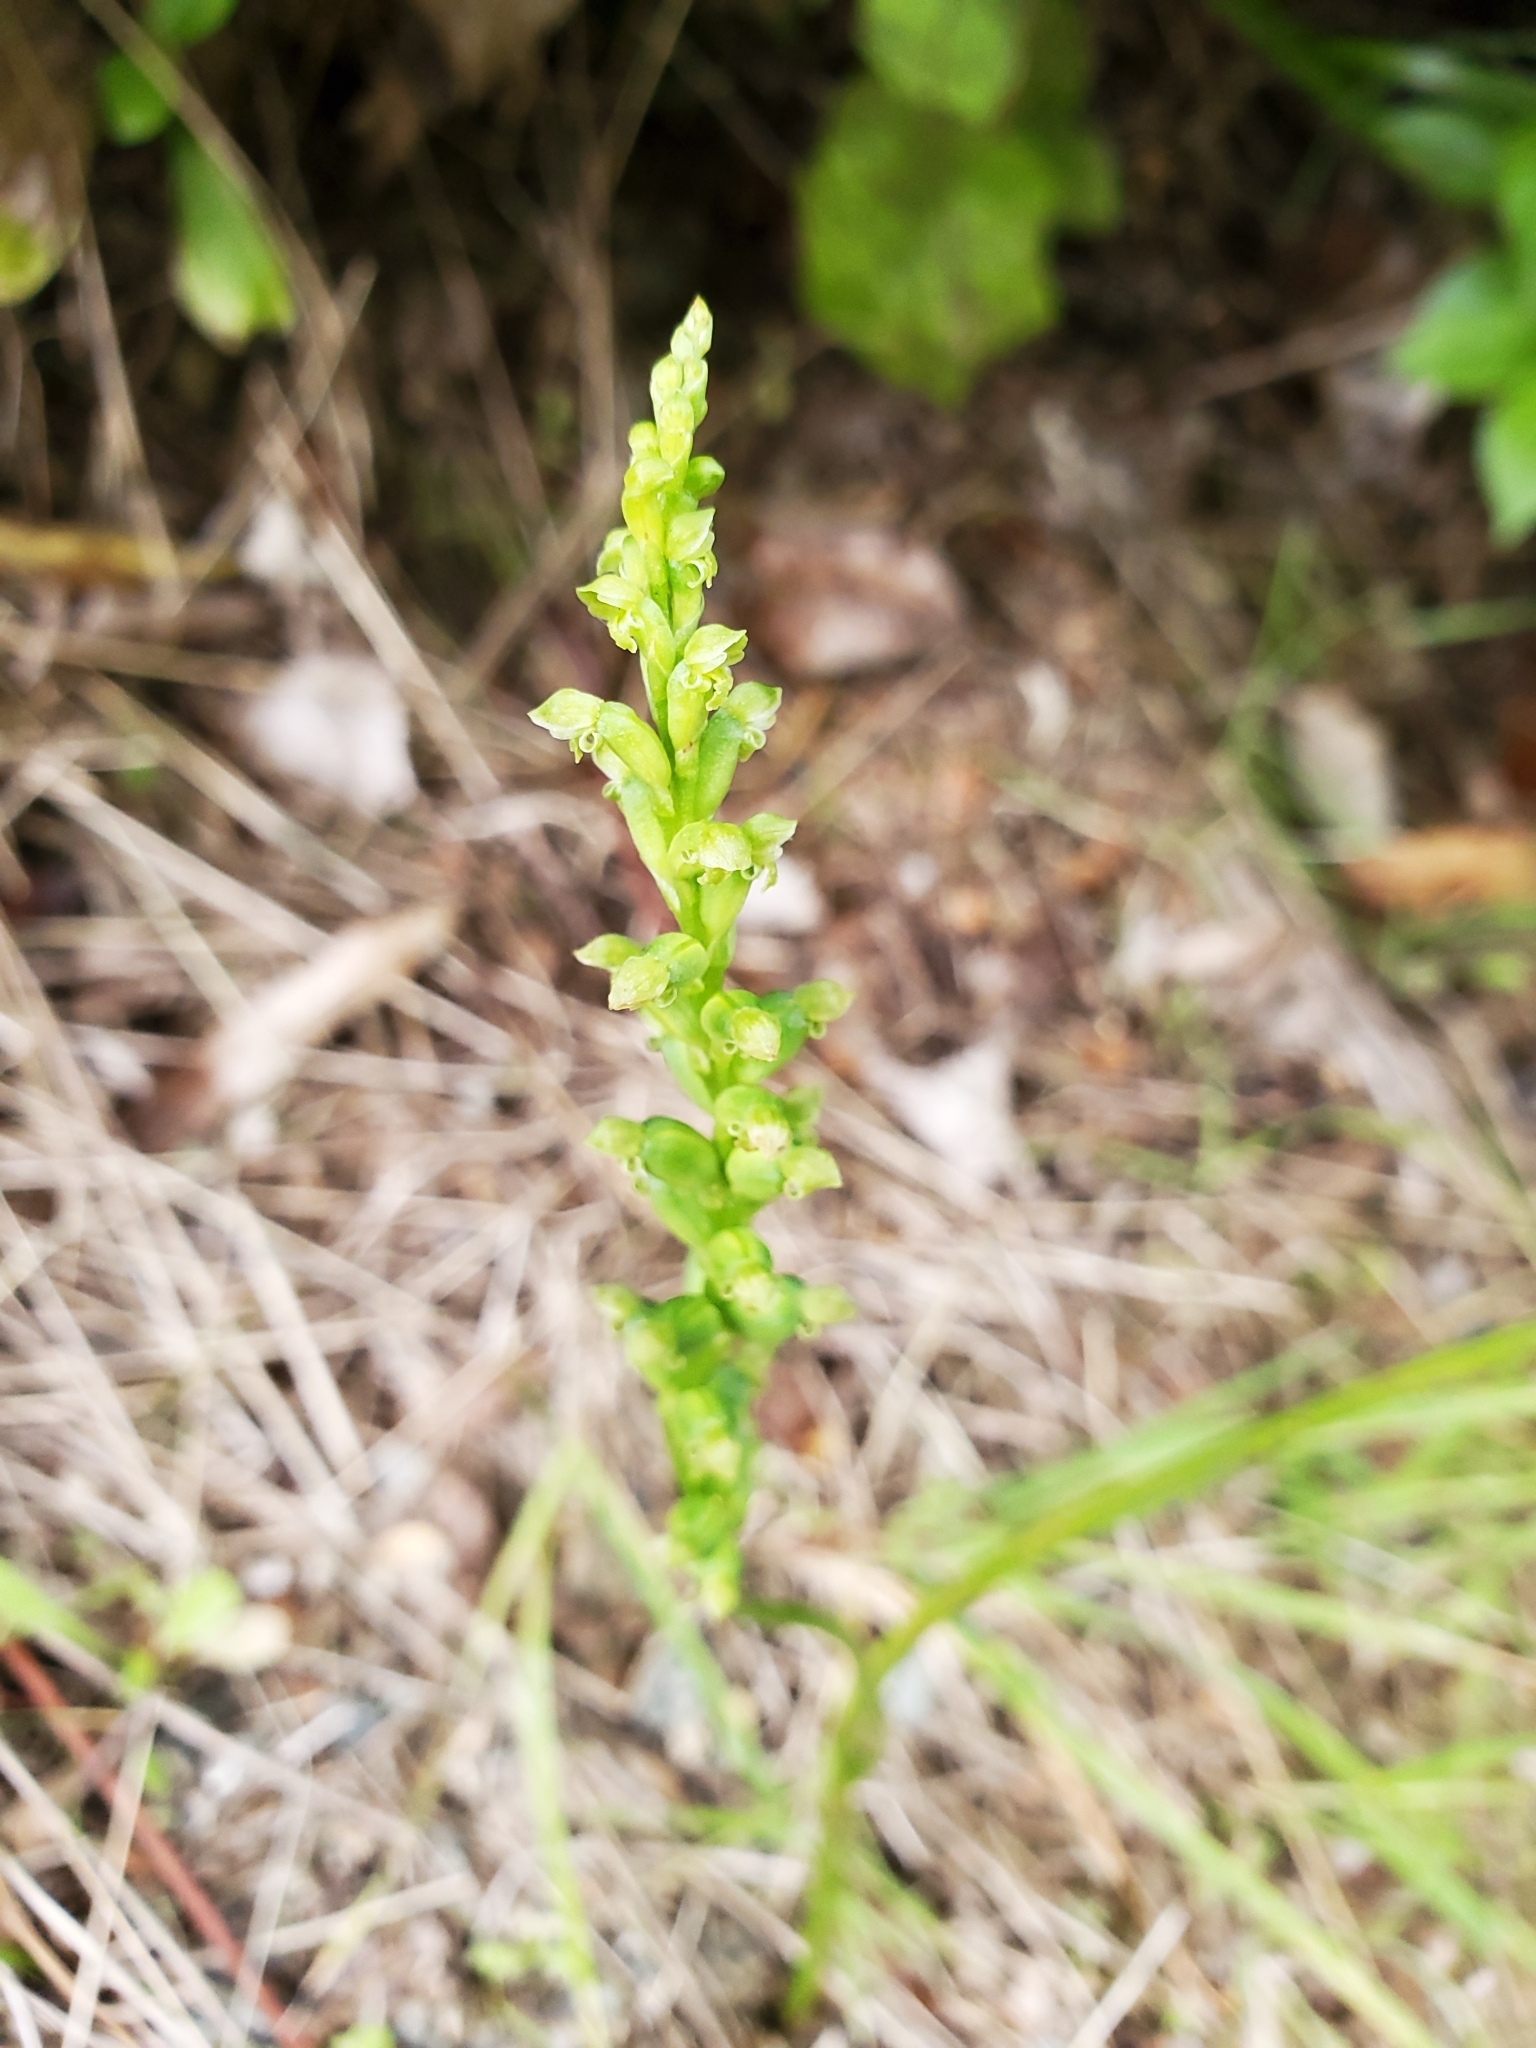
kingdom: Plantae
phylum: Tracheophyta
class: Liliopsida
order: Asparagales
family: Orchidaceae
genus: Microtis
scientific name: Microtis unifolia
